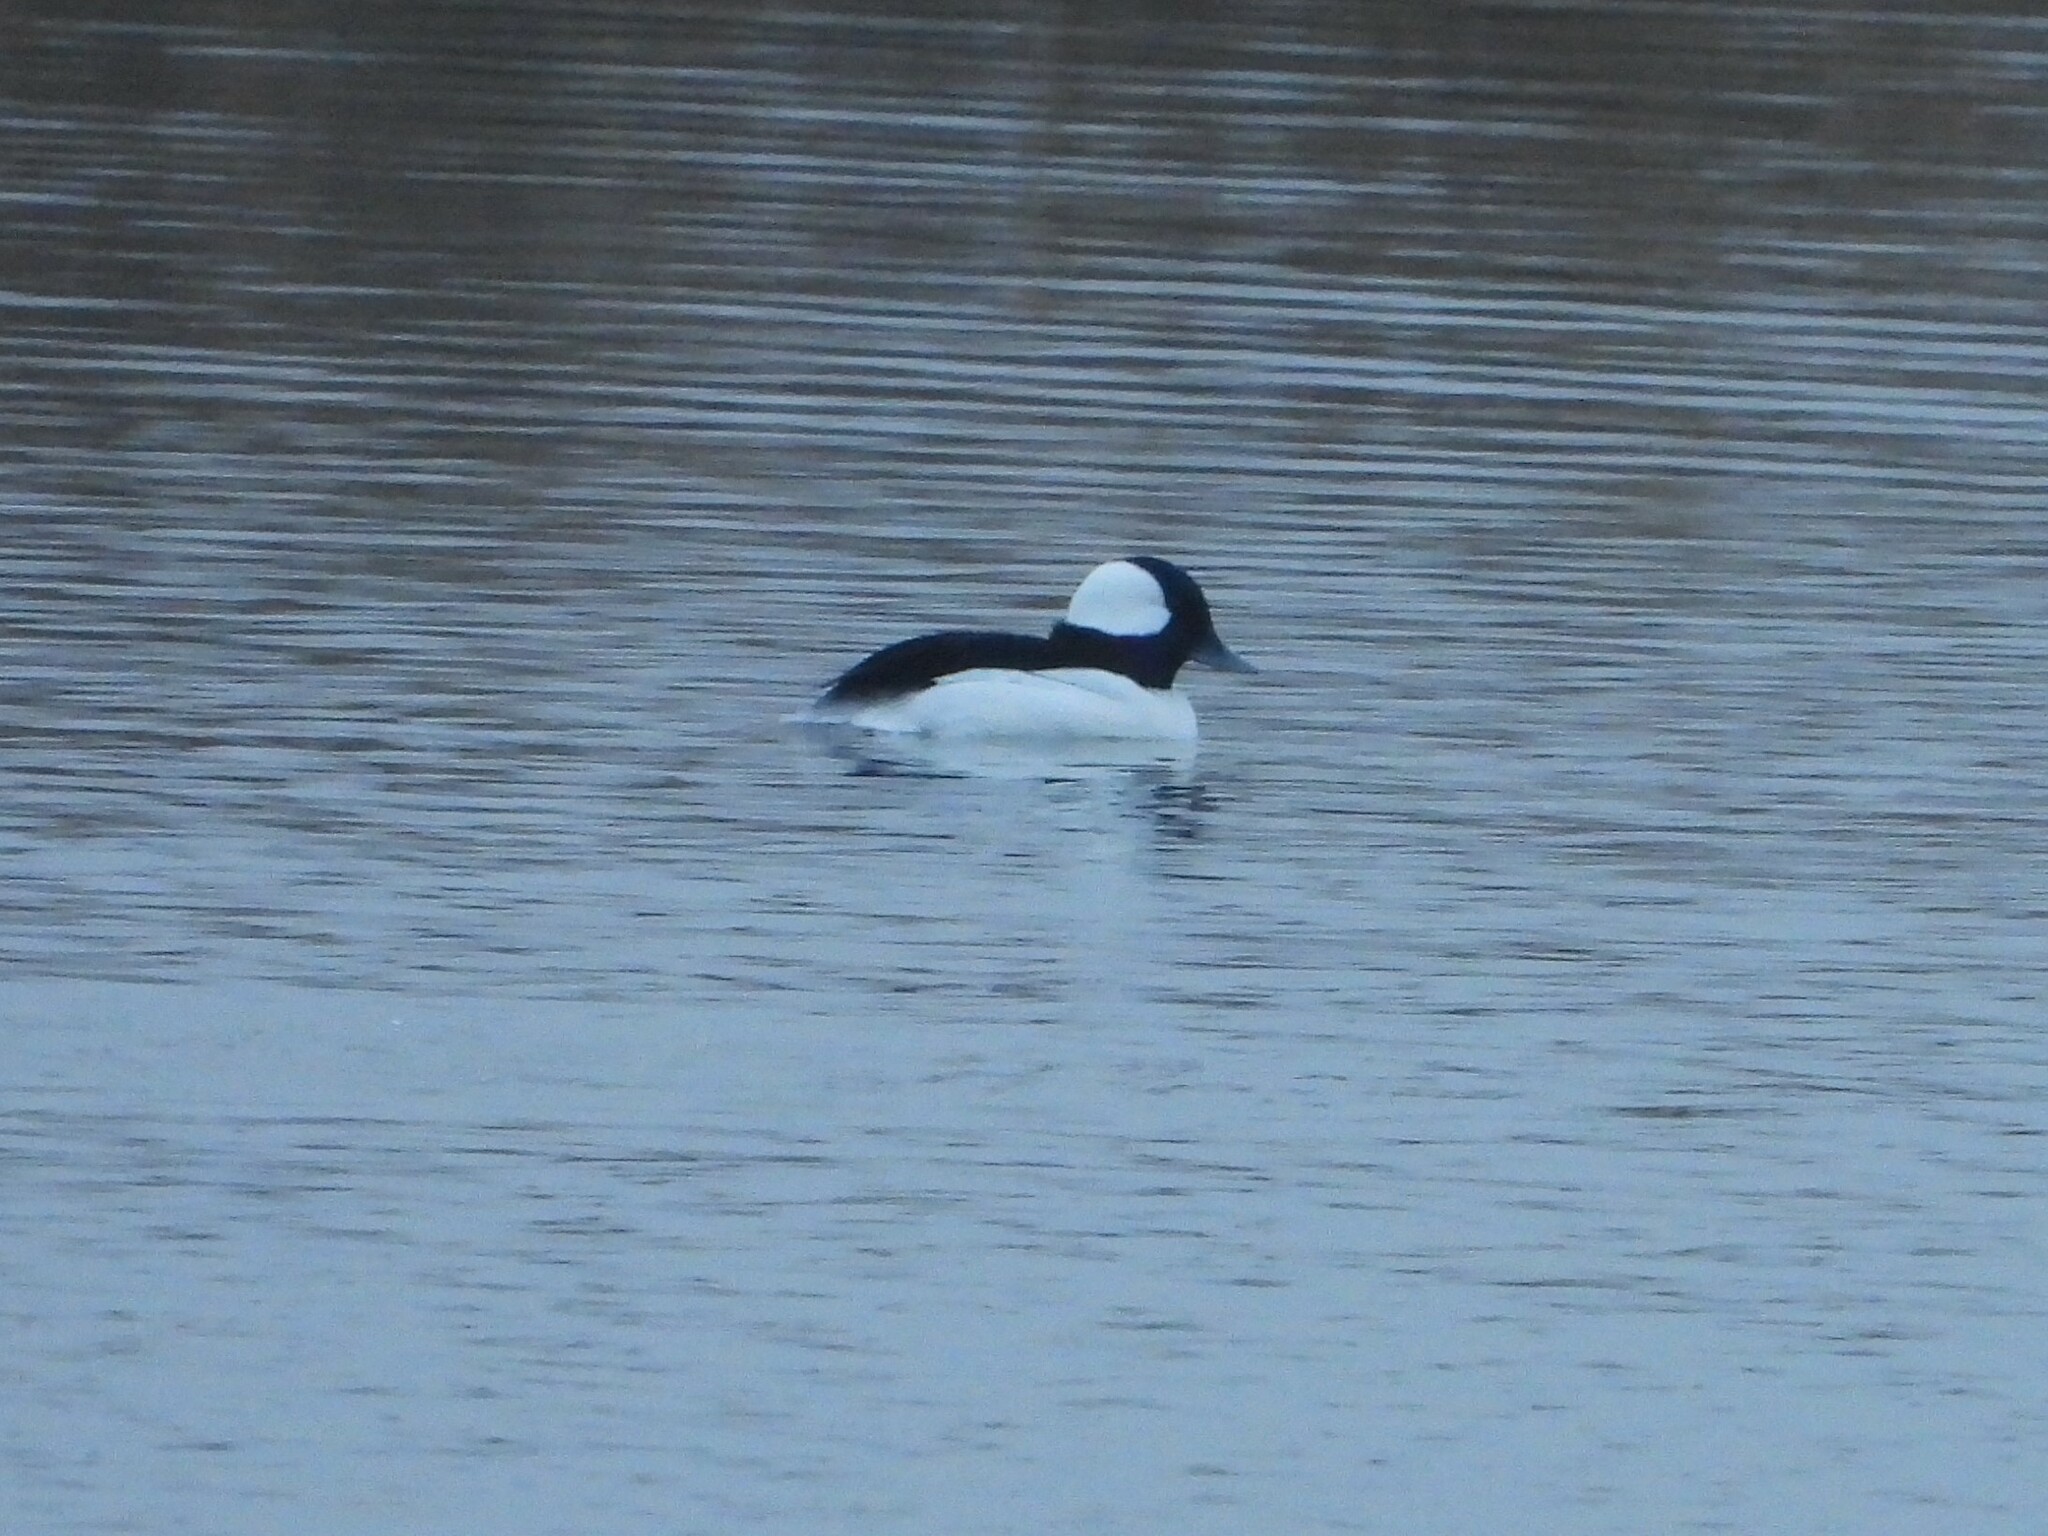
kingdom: Animalia
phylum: Chordata
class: Aves
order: Anseriformes
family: Anatidae
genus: Bucephala
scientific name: Bucephala albeola
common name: Bufflehead
